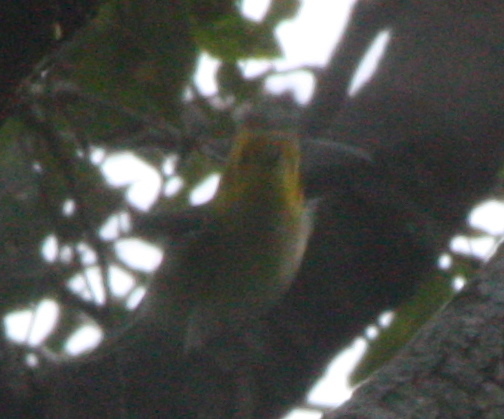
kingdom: Animalia
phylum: Chordata
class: Aves
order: Passeriformes
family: Parulidae
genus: Setophaga
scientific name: Setophaga occidentalis
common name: Hermit warbler
